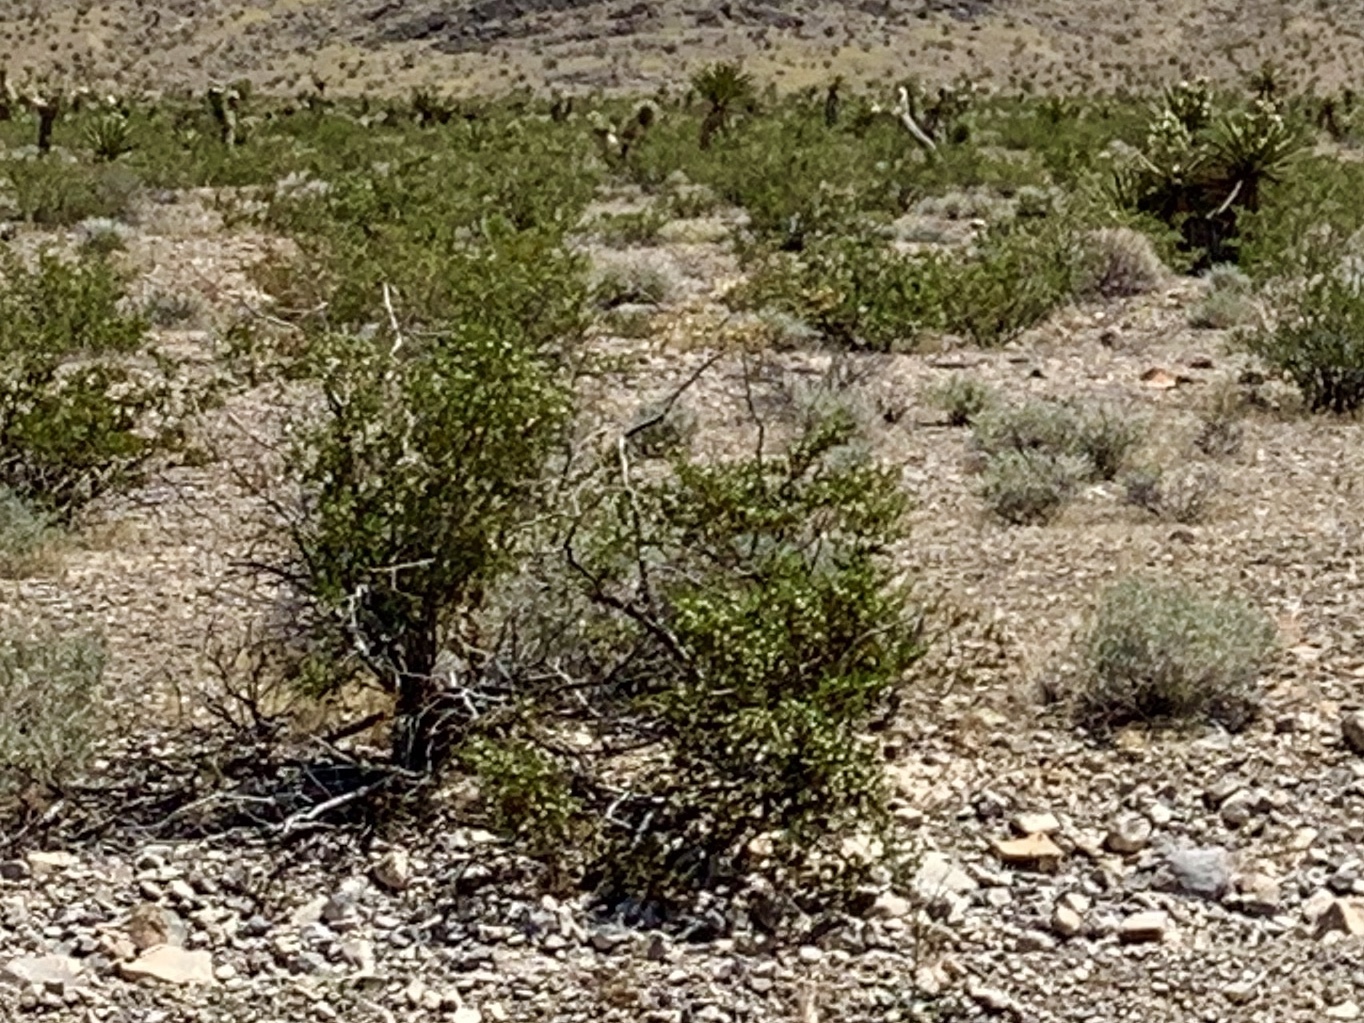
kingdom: Plantae
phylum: Tracheophyta
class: Magnoliopsida
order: Zygophyllales
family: Zygophyllaceae
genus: Larrea
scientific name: Larrea tridentata
